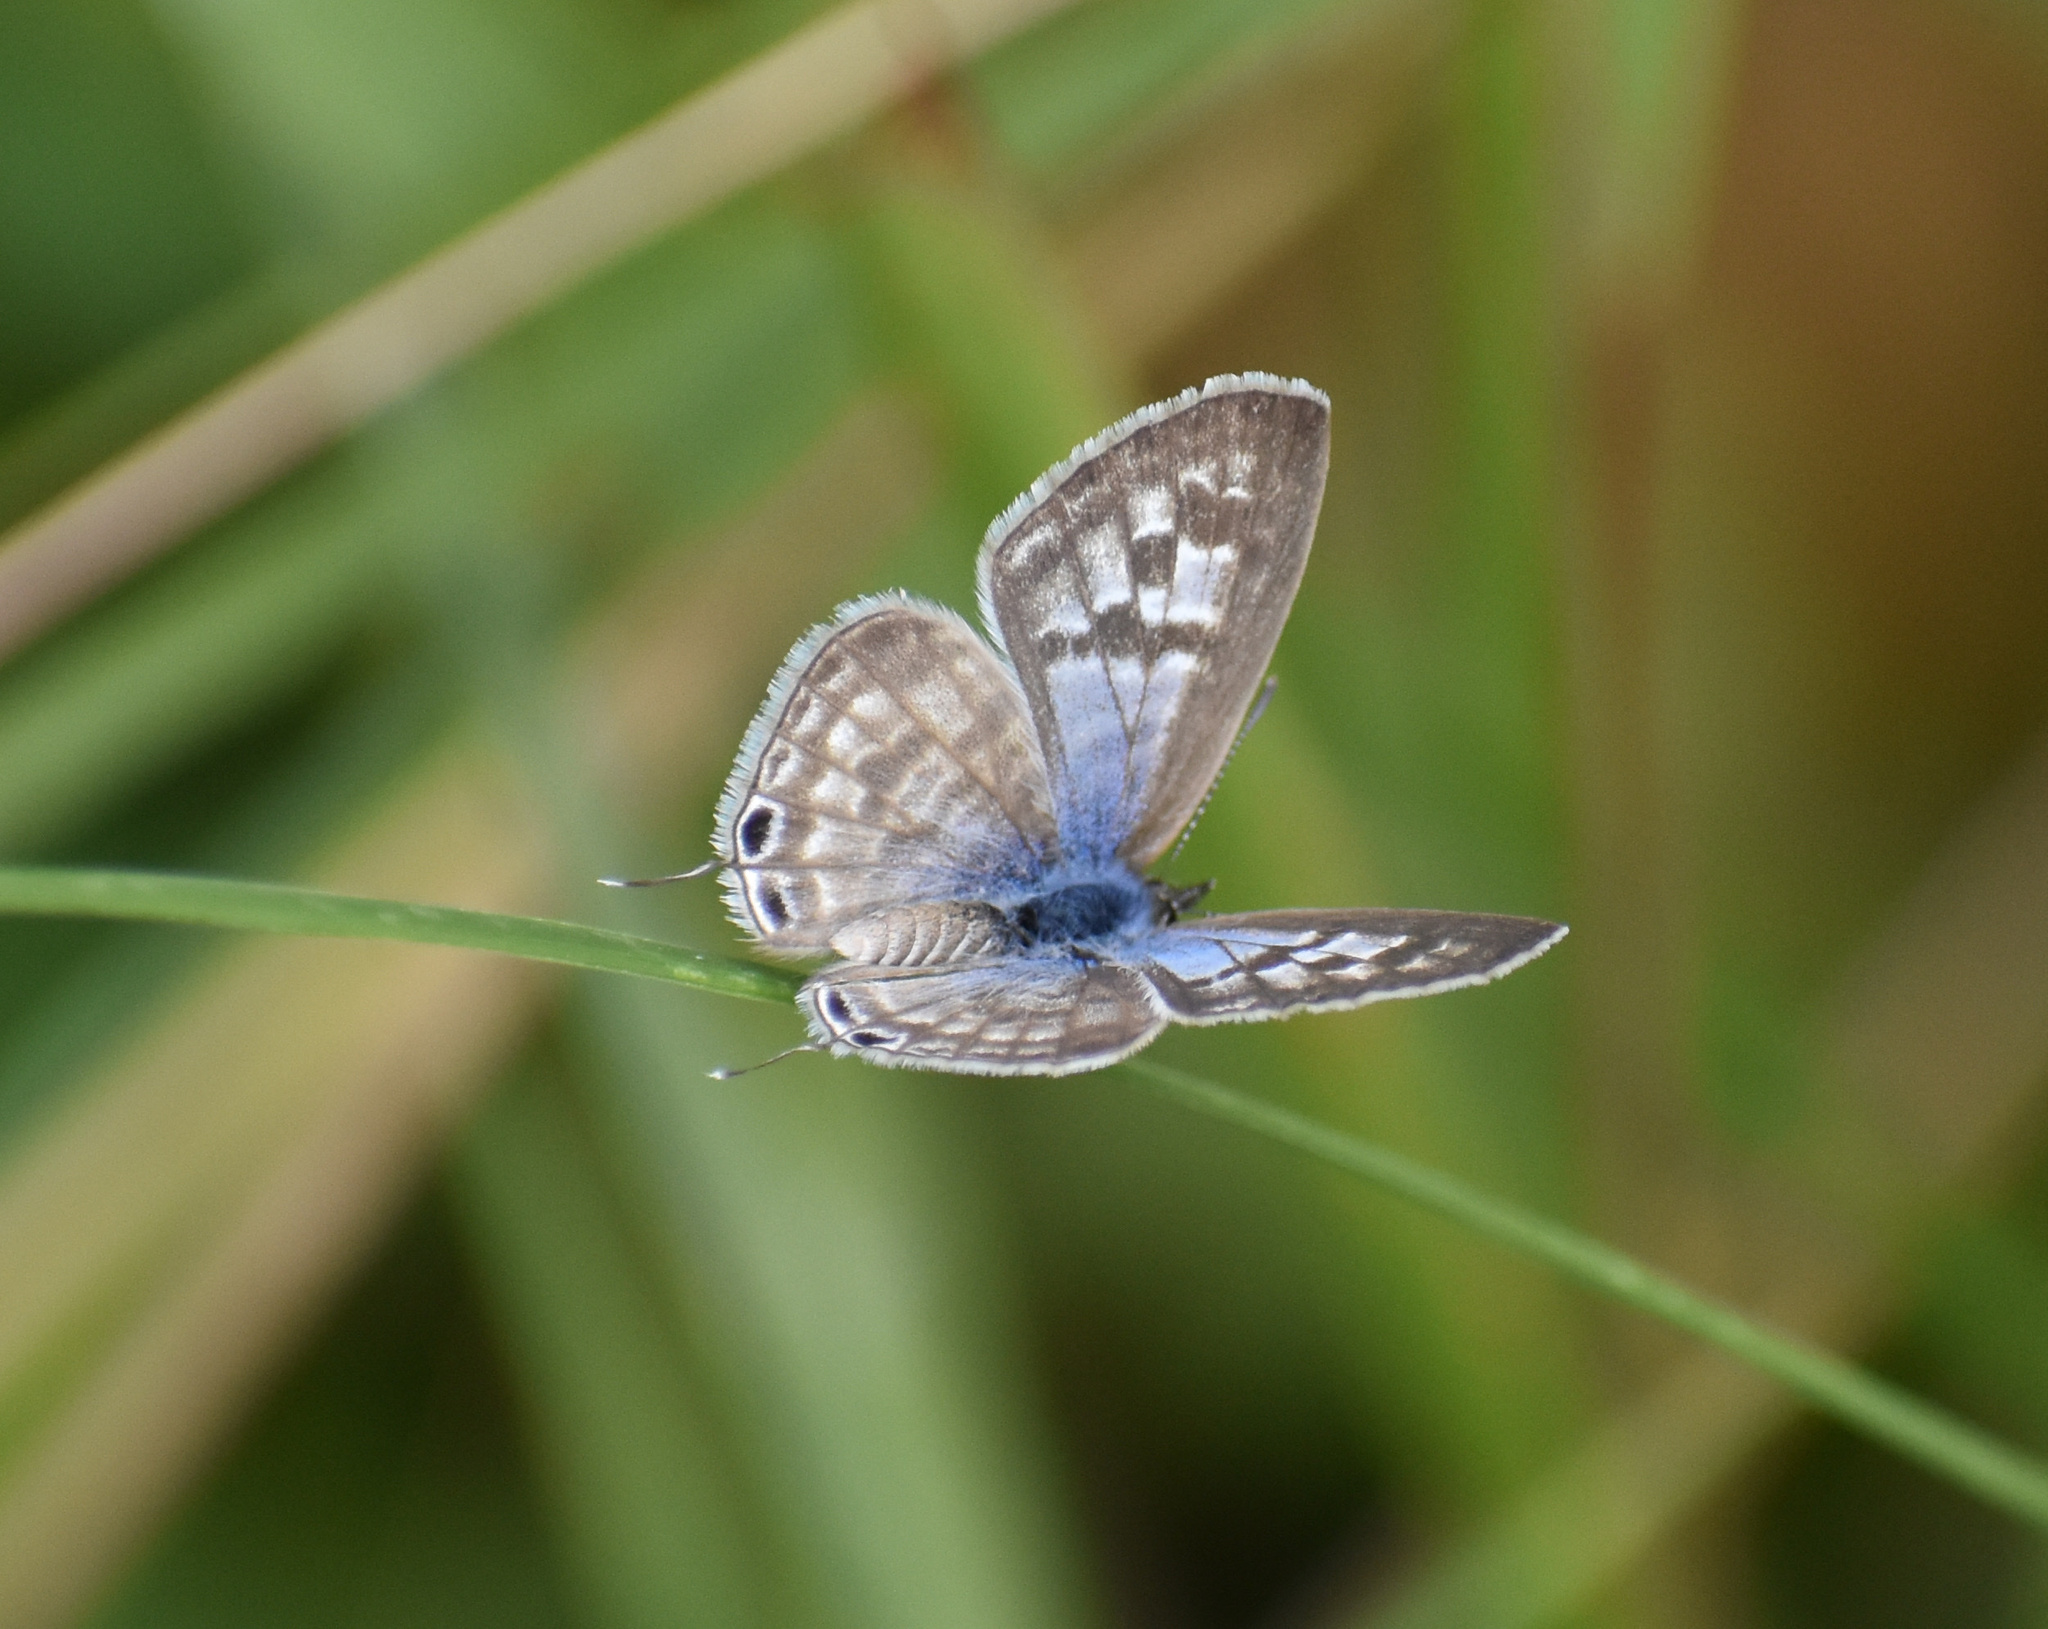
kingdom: Animalia
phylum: Arthropoda
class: Insecta
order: Lepidoptera
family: Lycaenidae
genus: Leptotes
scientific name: Leptotes
